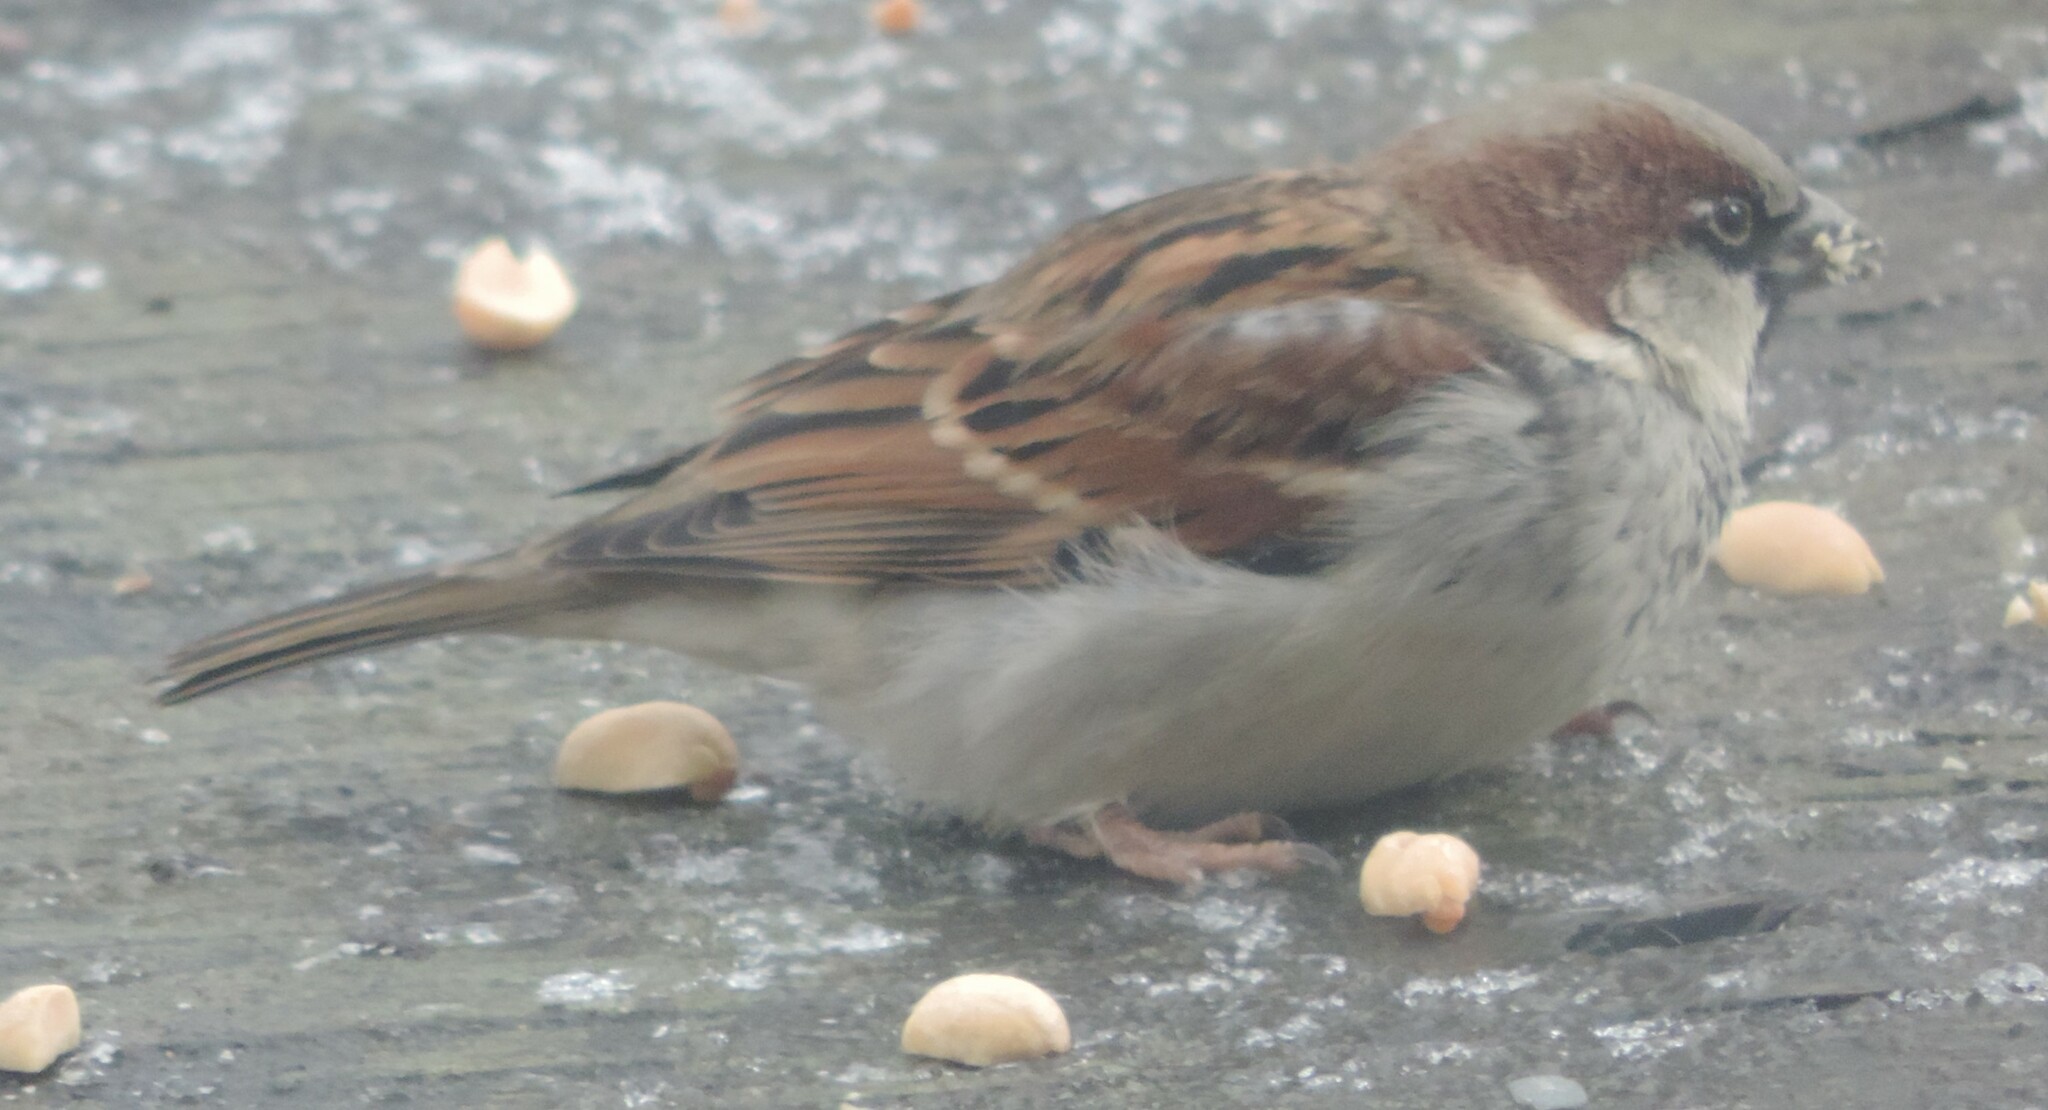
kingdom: Animalia
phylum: Chordata
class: Aves
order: Passeriformes
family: Passeridae
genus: Passer
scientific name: Passer domesticus
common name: House sparrow
